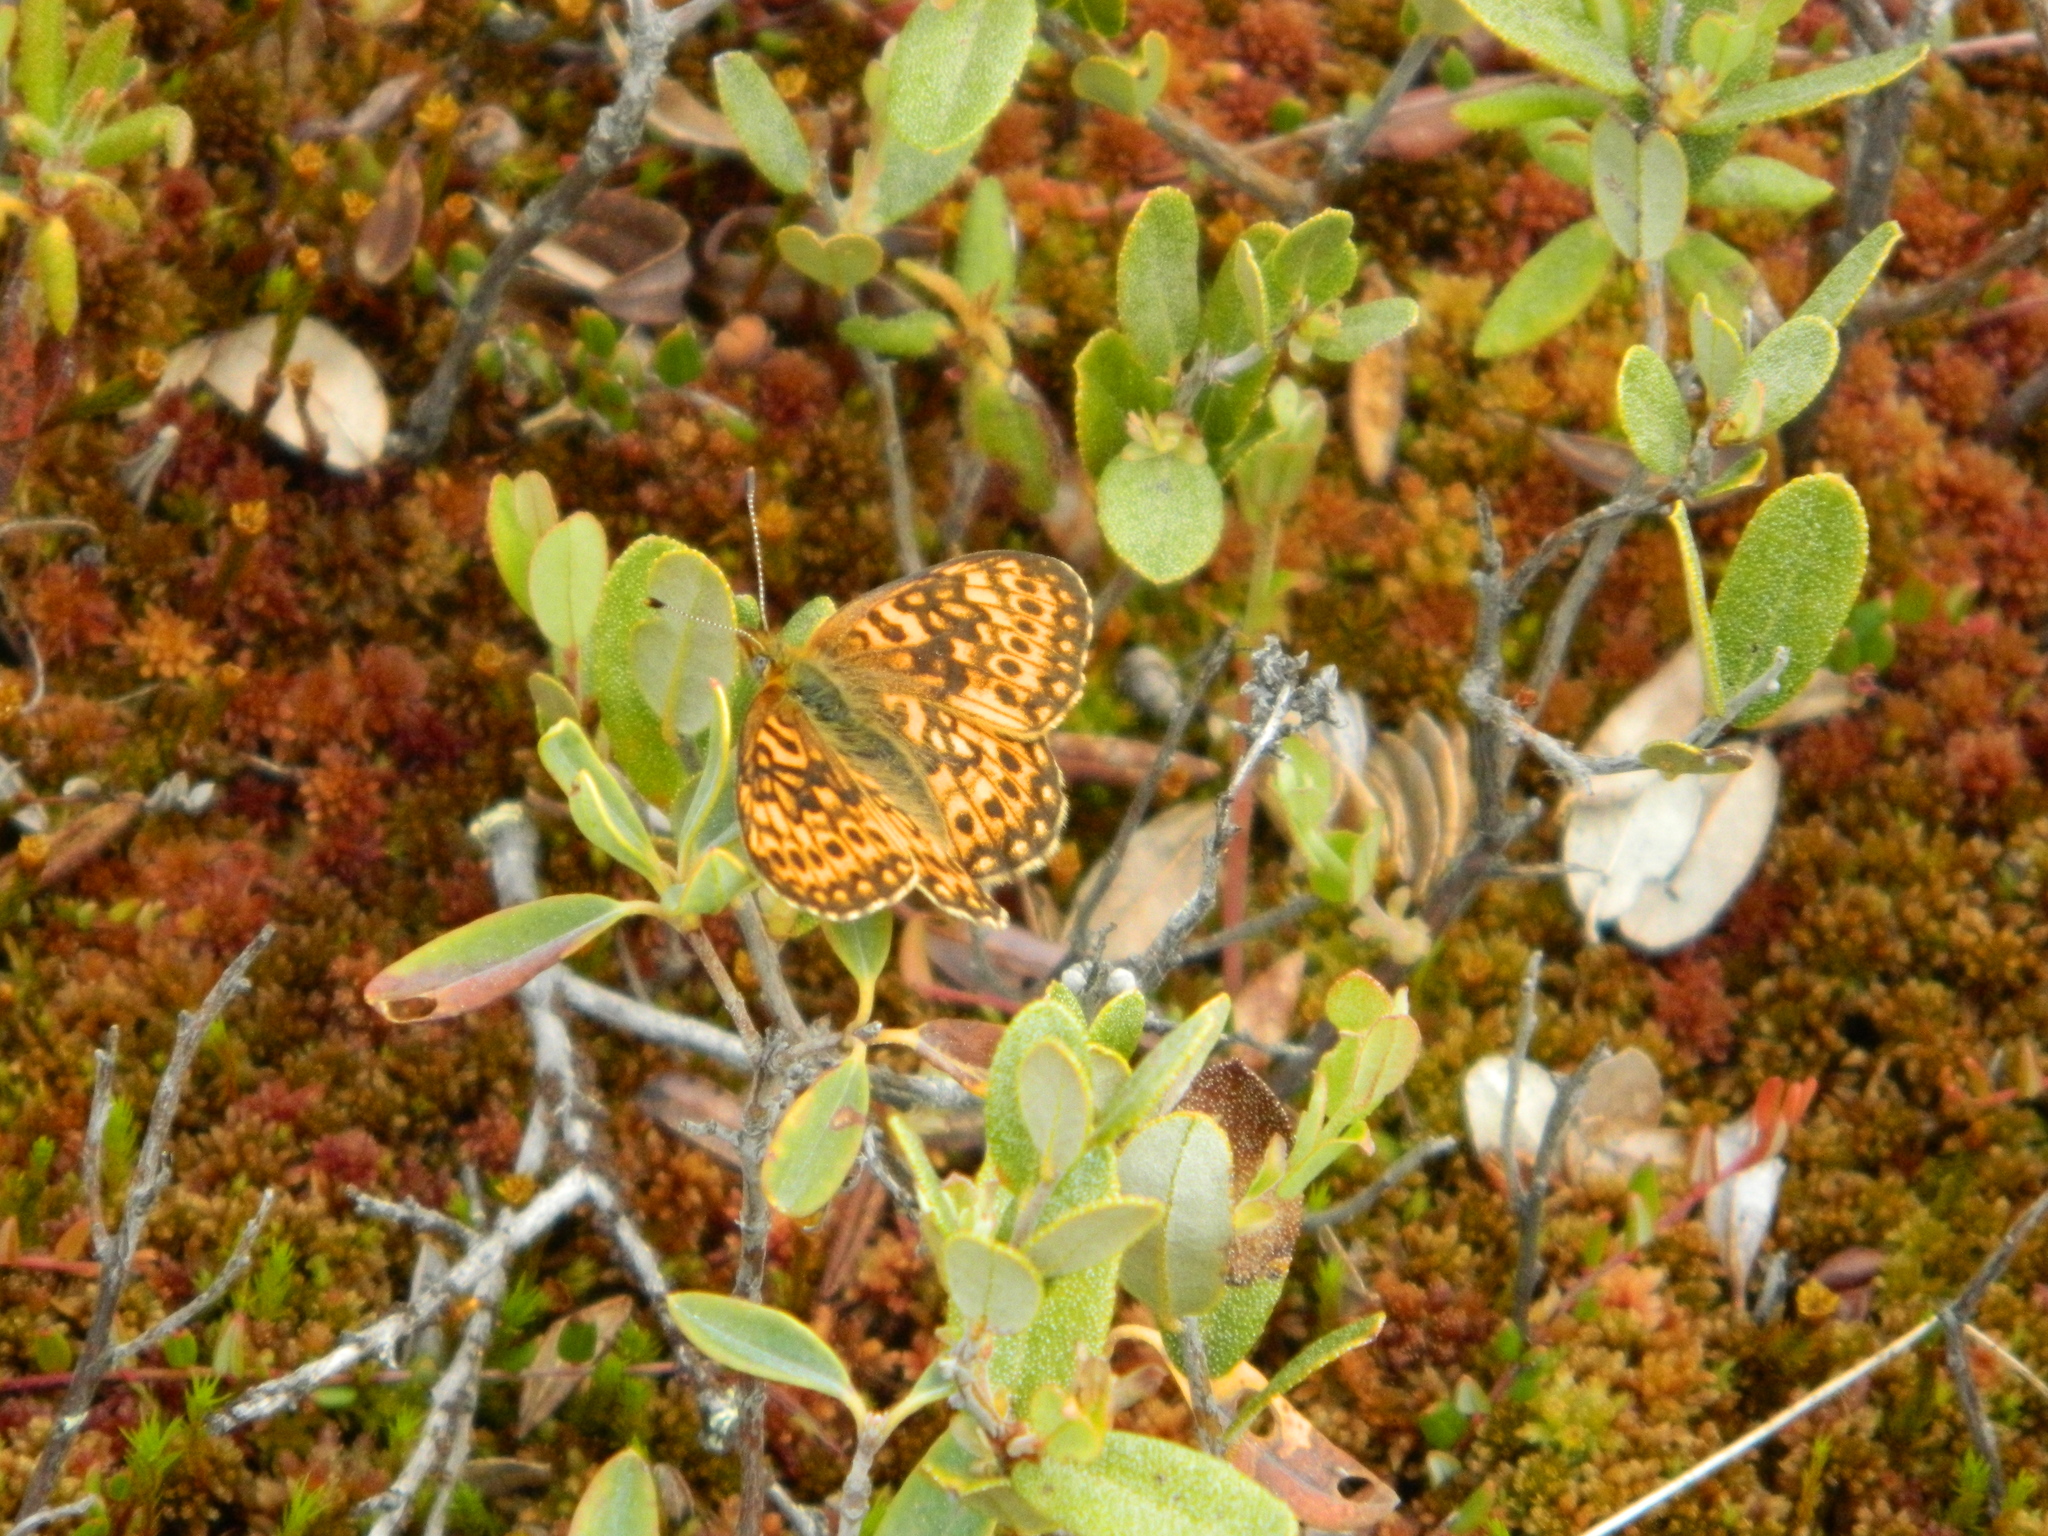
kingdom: Animalia
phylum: Arthropoda
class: Insecta
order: Lepidoptera
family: Nymphalidae
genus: Boloria
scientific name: Boloria eunomia
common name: Bog fritillary
